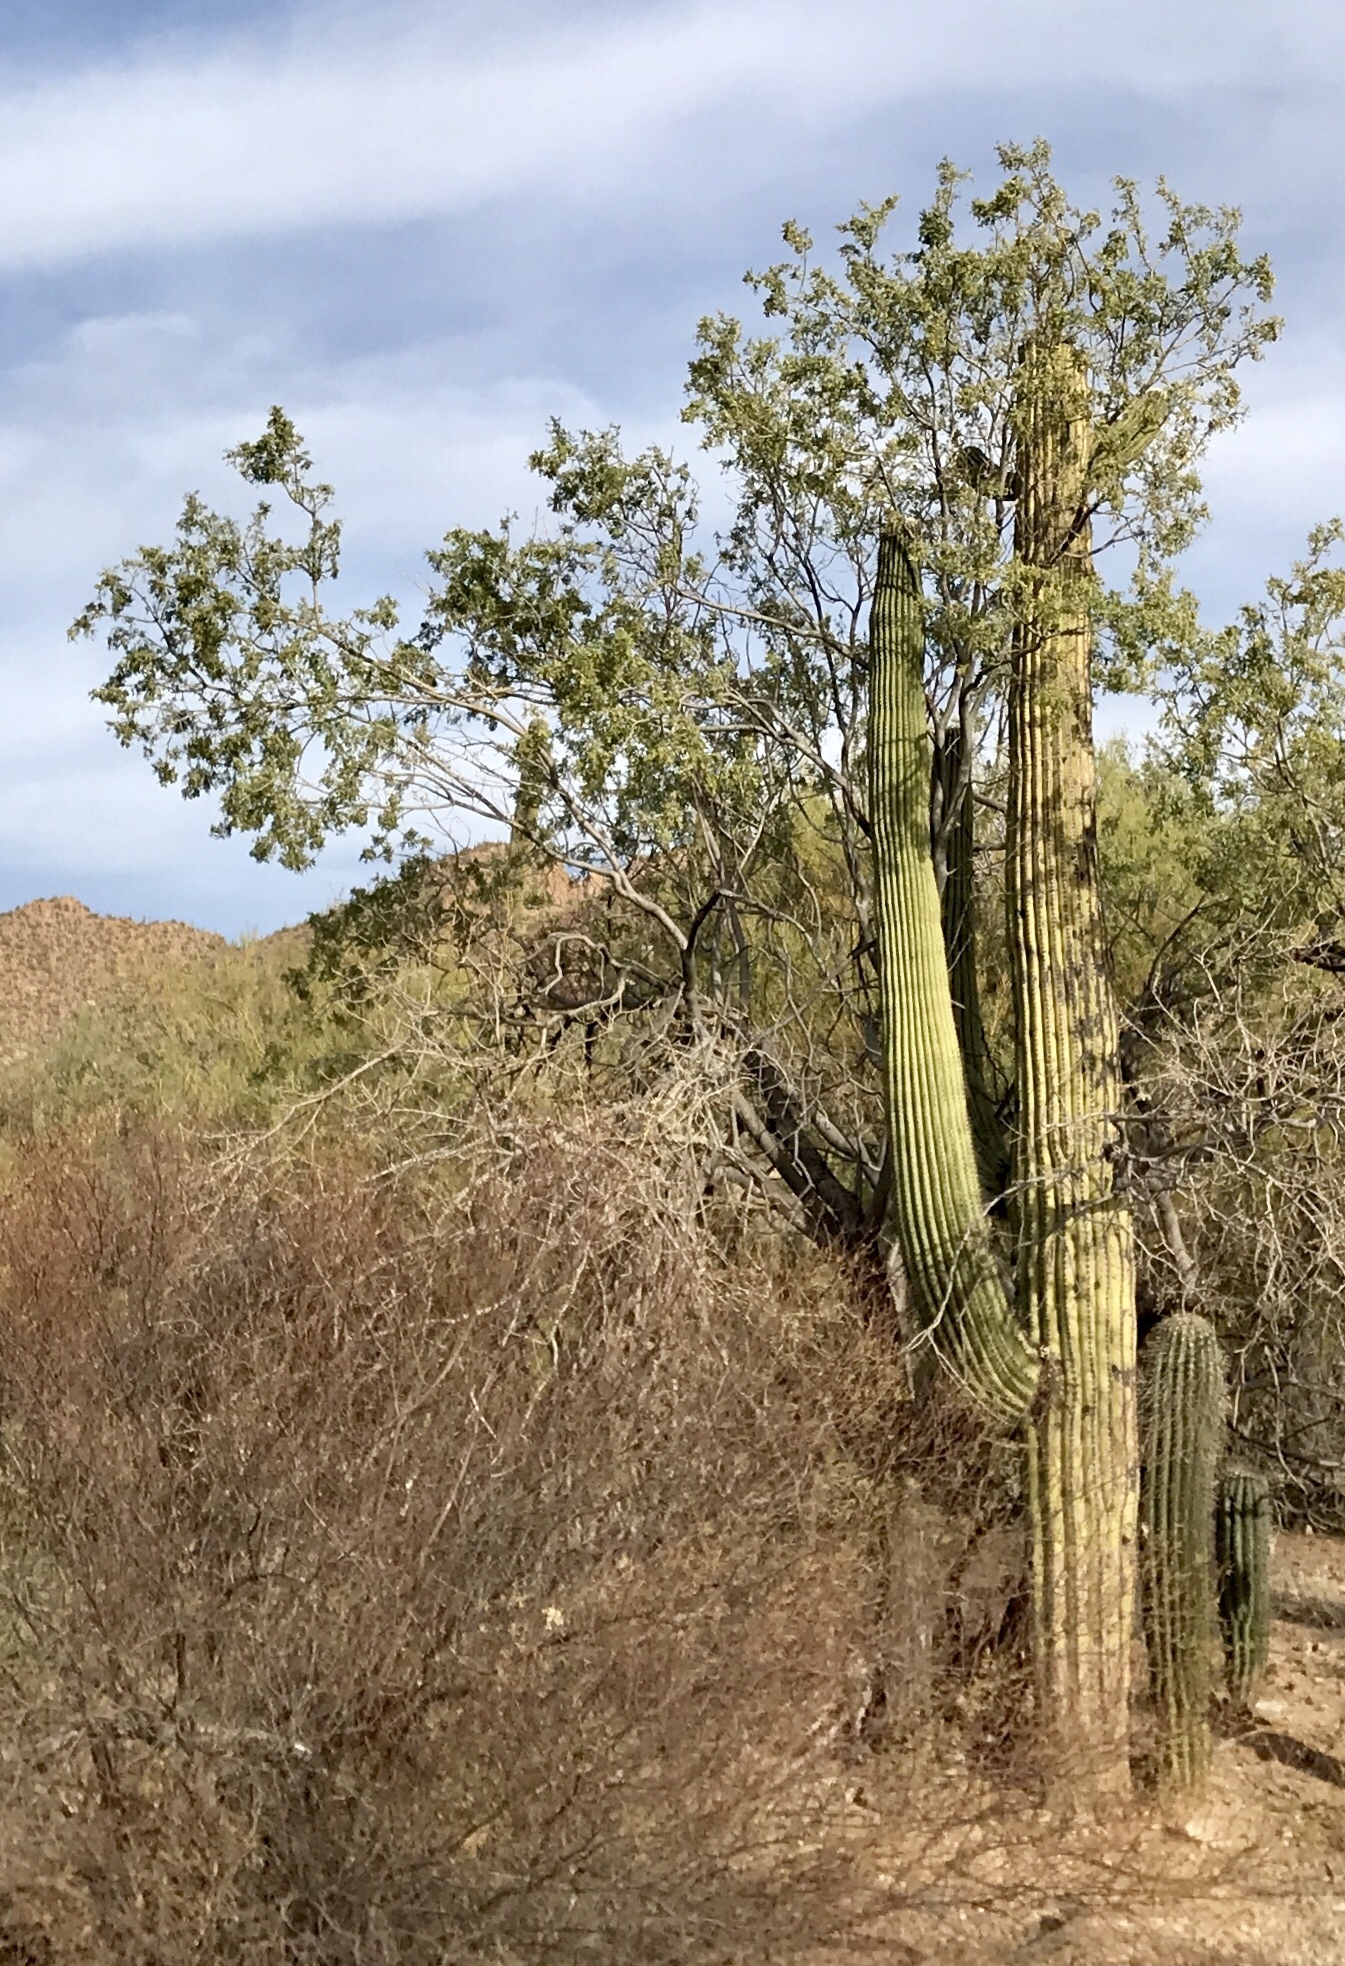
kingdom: Plantae
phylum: Tracheophyta
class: Magnoliopsida
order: Fabales
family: Fabaceae
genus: Olneya
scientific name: Olneya tesota
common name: Desert ironwood
